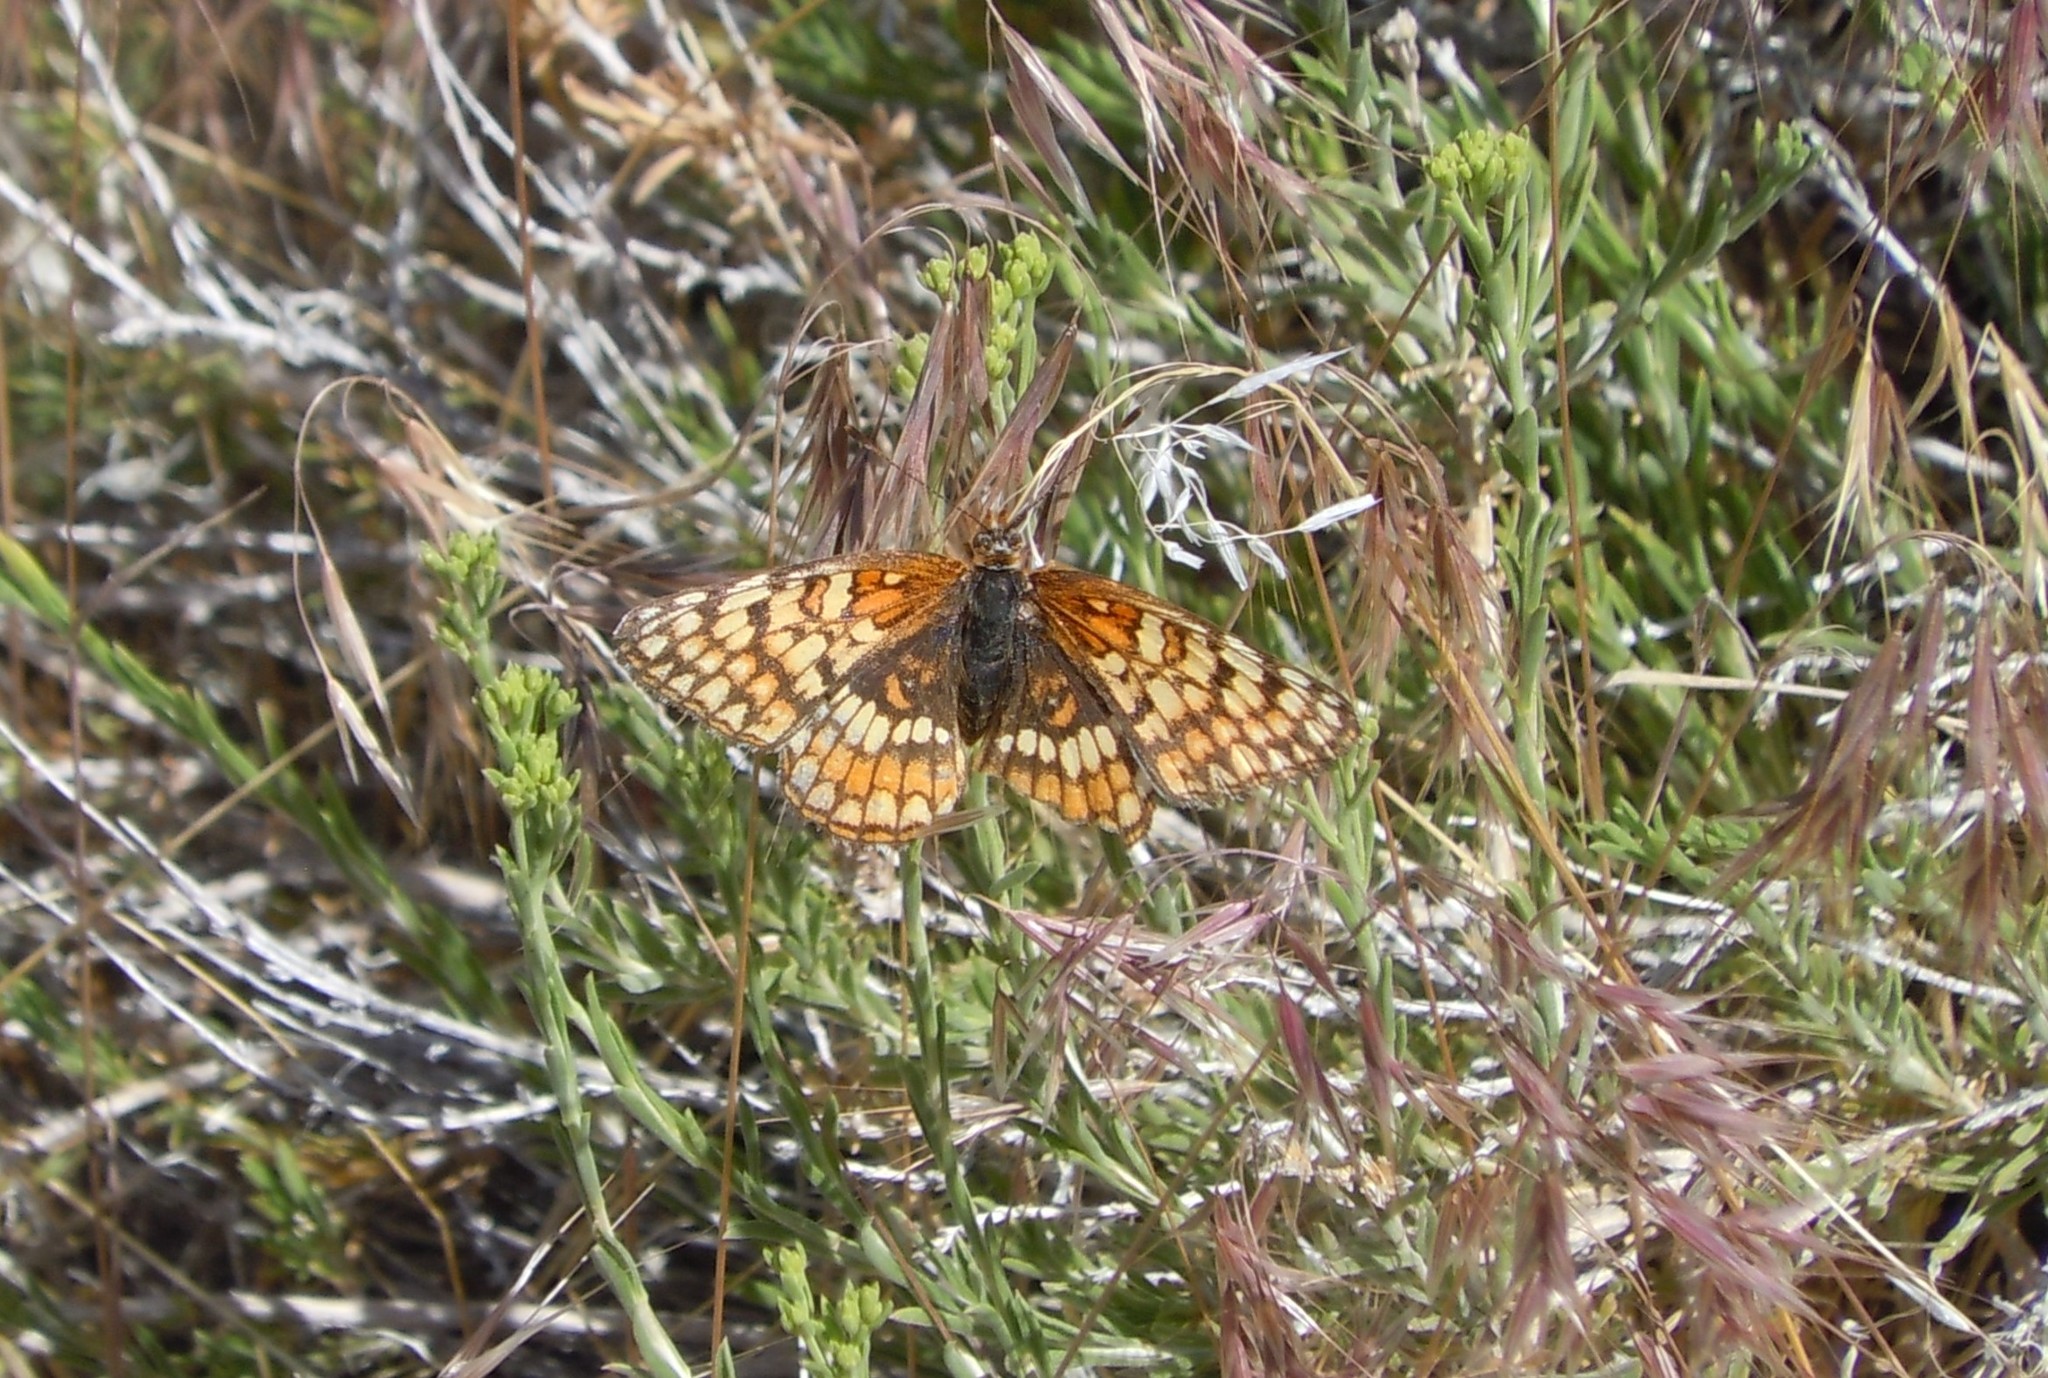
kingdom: Animalia
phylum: Arthropoda
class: Insecta
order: Lepidoptera
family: Nymphalidae
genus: Chlosyne
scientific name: Chlosyne acastus
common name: Sagebrush checkerspot
